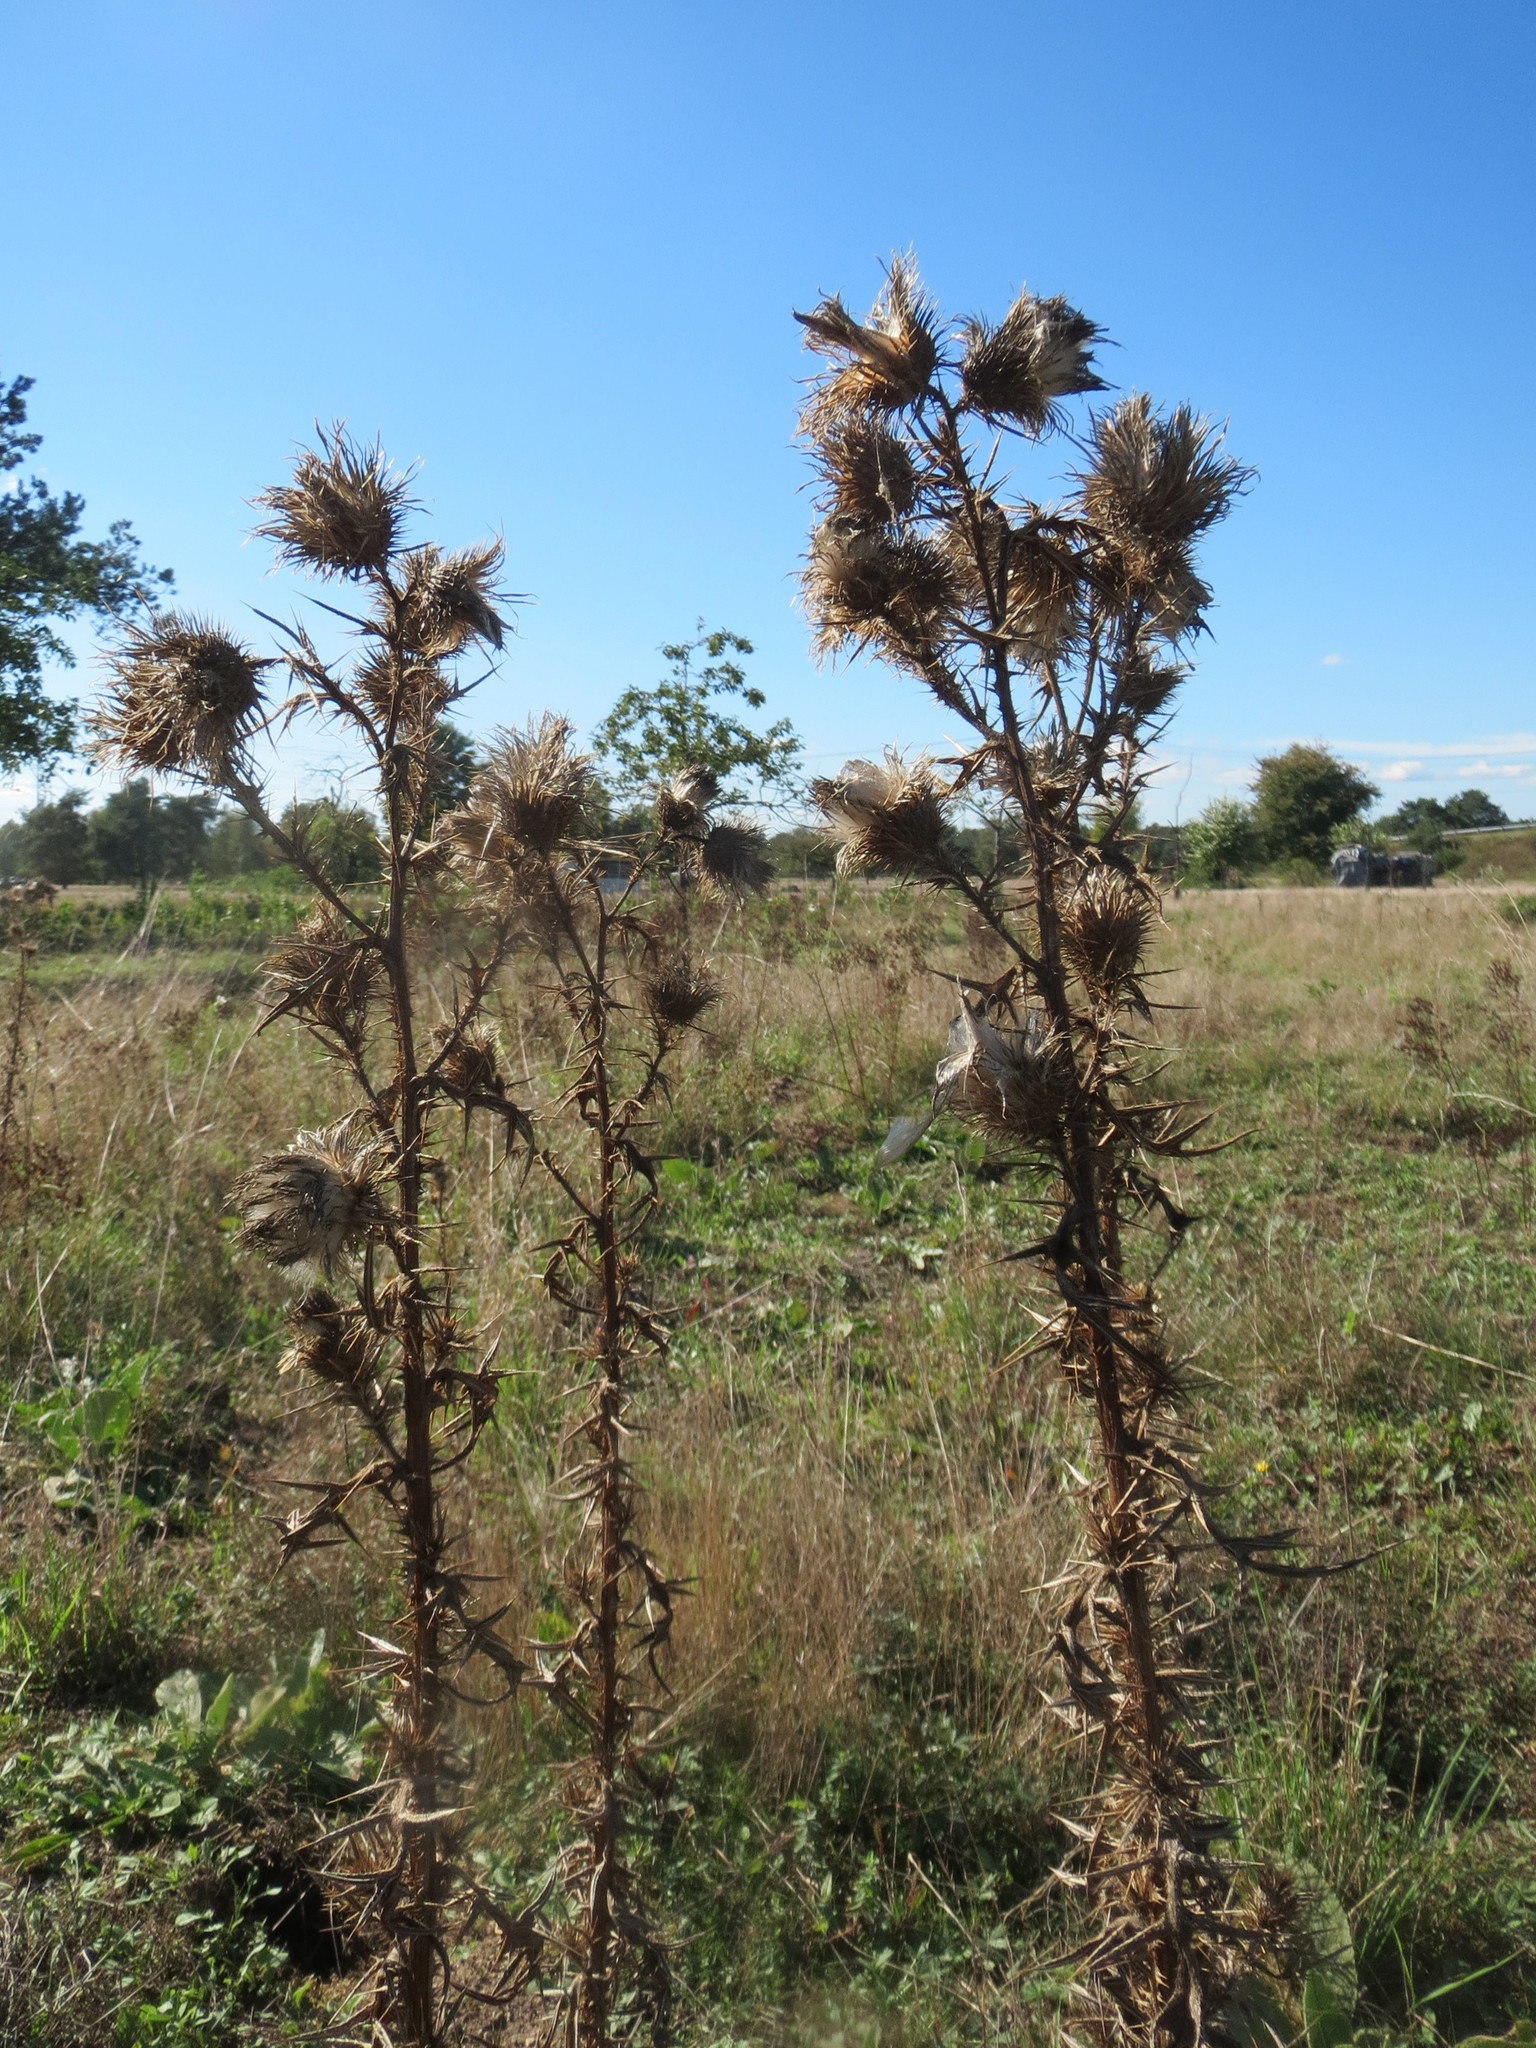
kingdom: Plantae
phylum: Tracheophyta
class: Magnoliopsida
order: Asterales
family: Asteraceae
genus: Cirsium
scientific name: Cirsium vulgare
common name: Bull thistle
